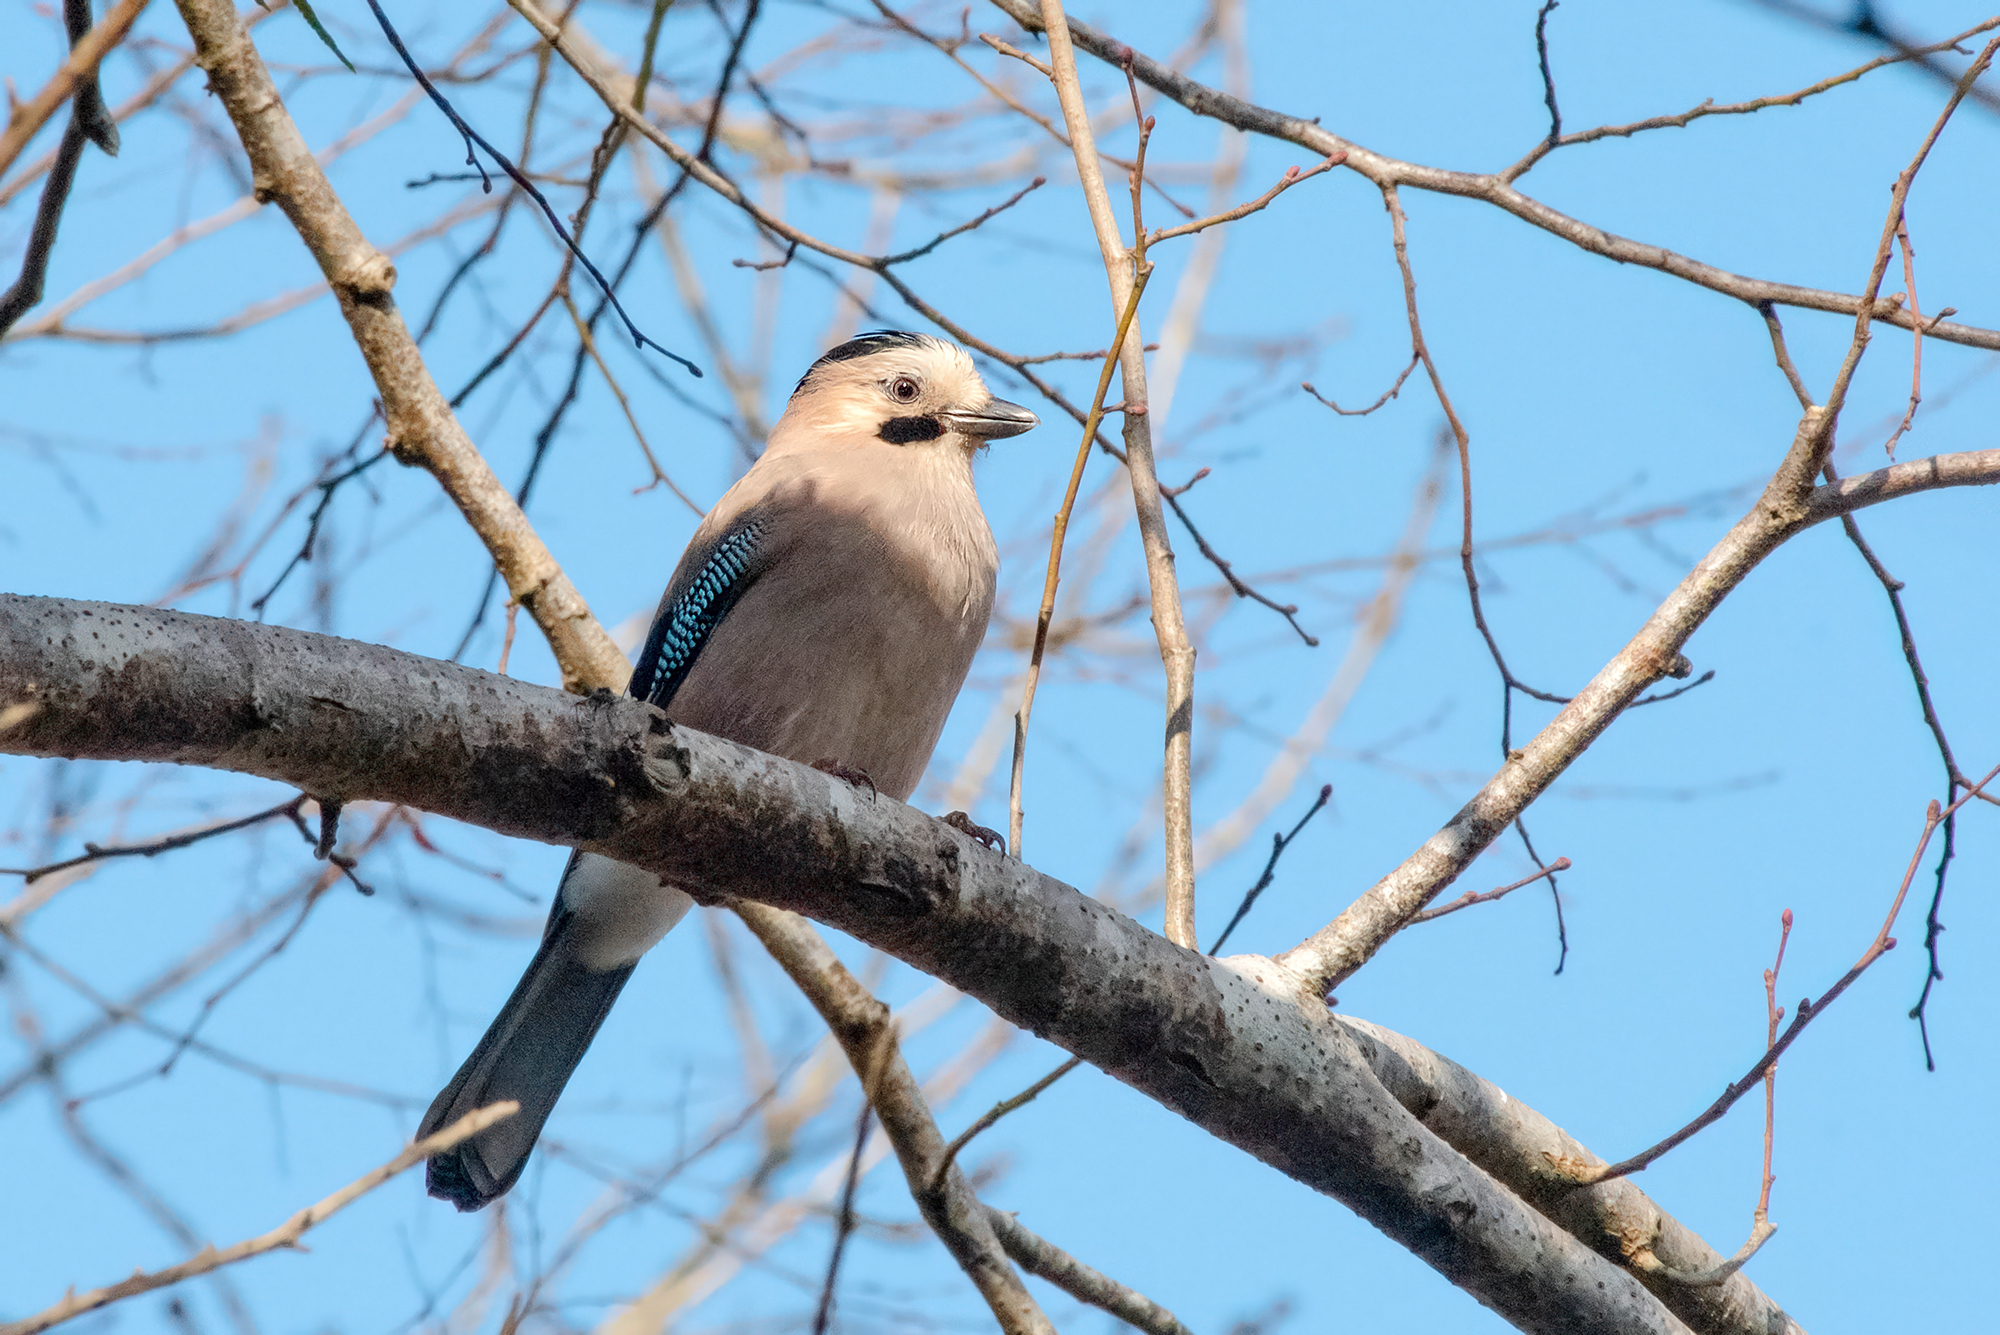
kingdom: Animalia
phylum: Chordata
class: Aves
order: Passeriformes
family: Corvidae
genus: Garrulus
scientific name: Garrulus glandarius
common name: Eurasian jay
